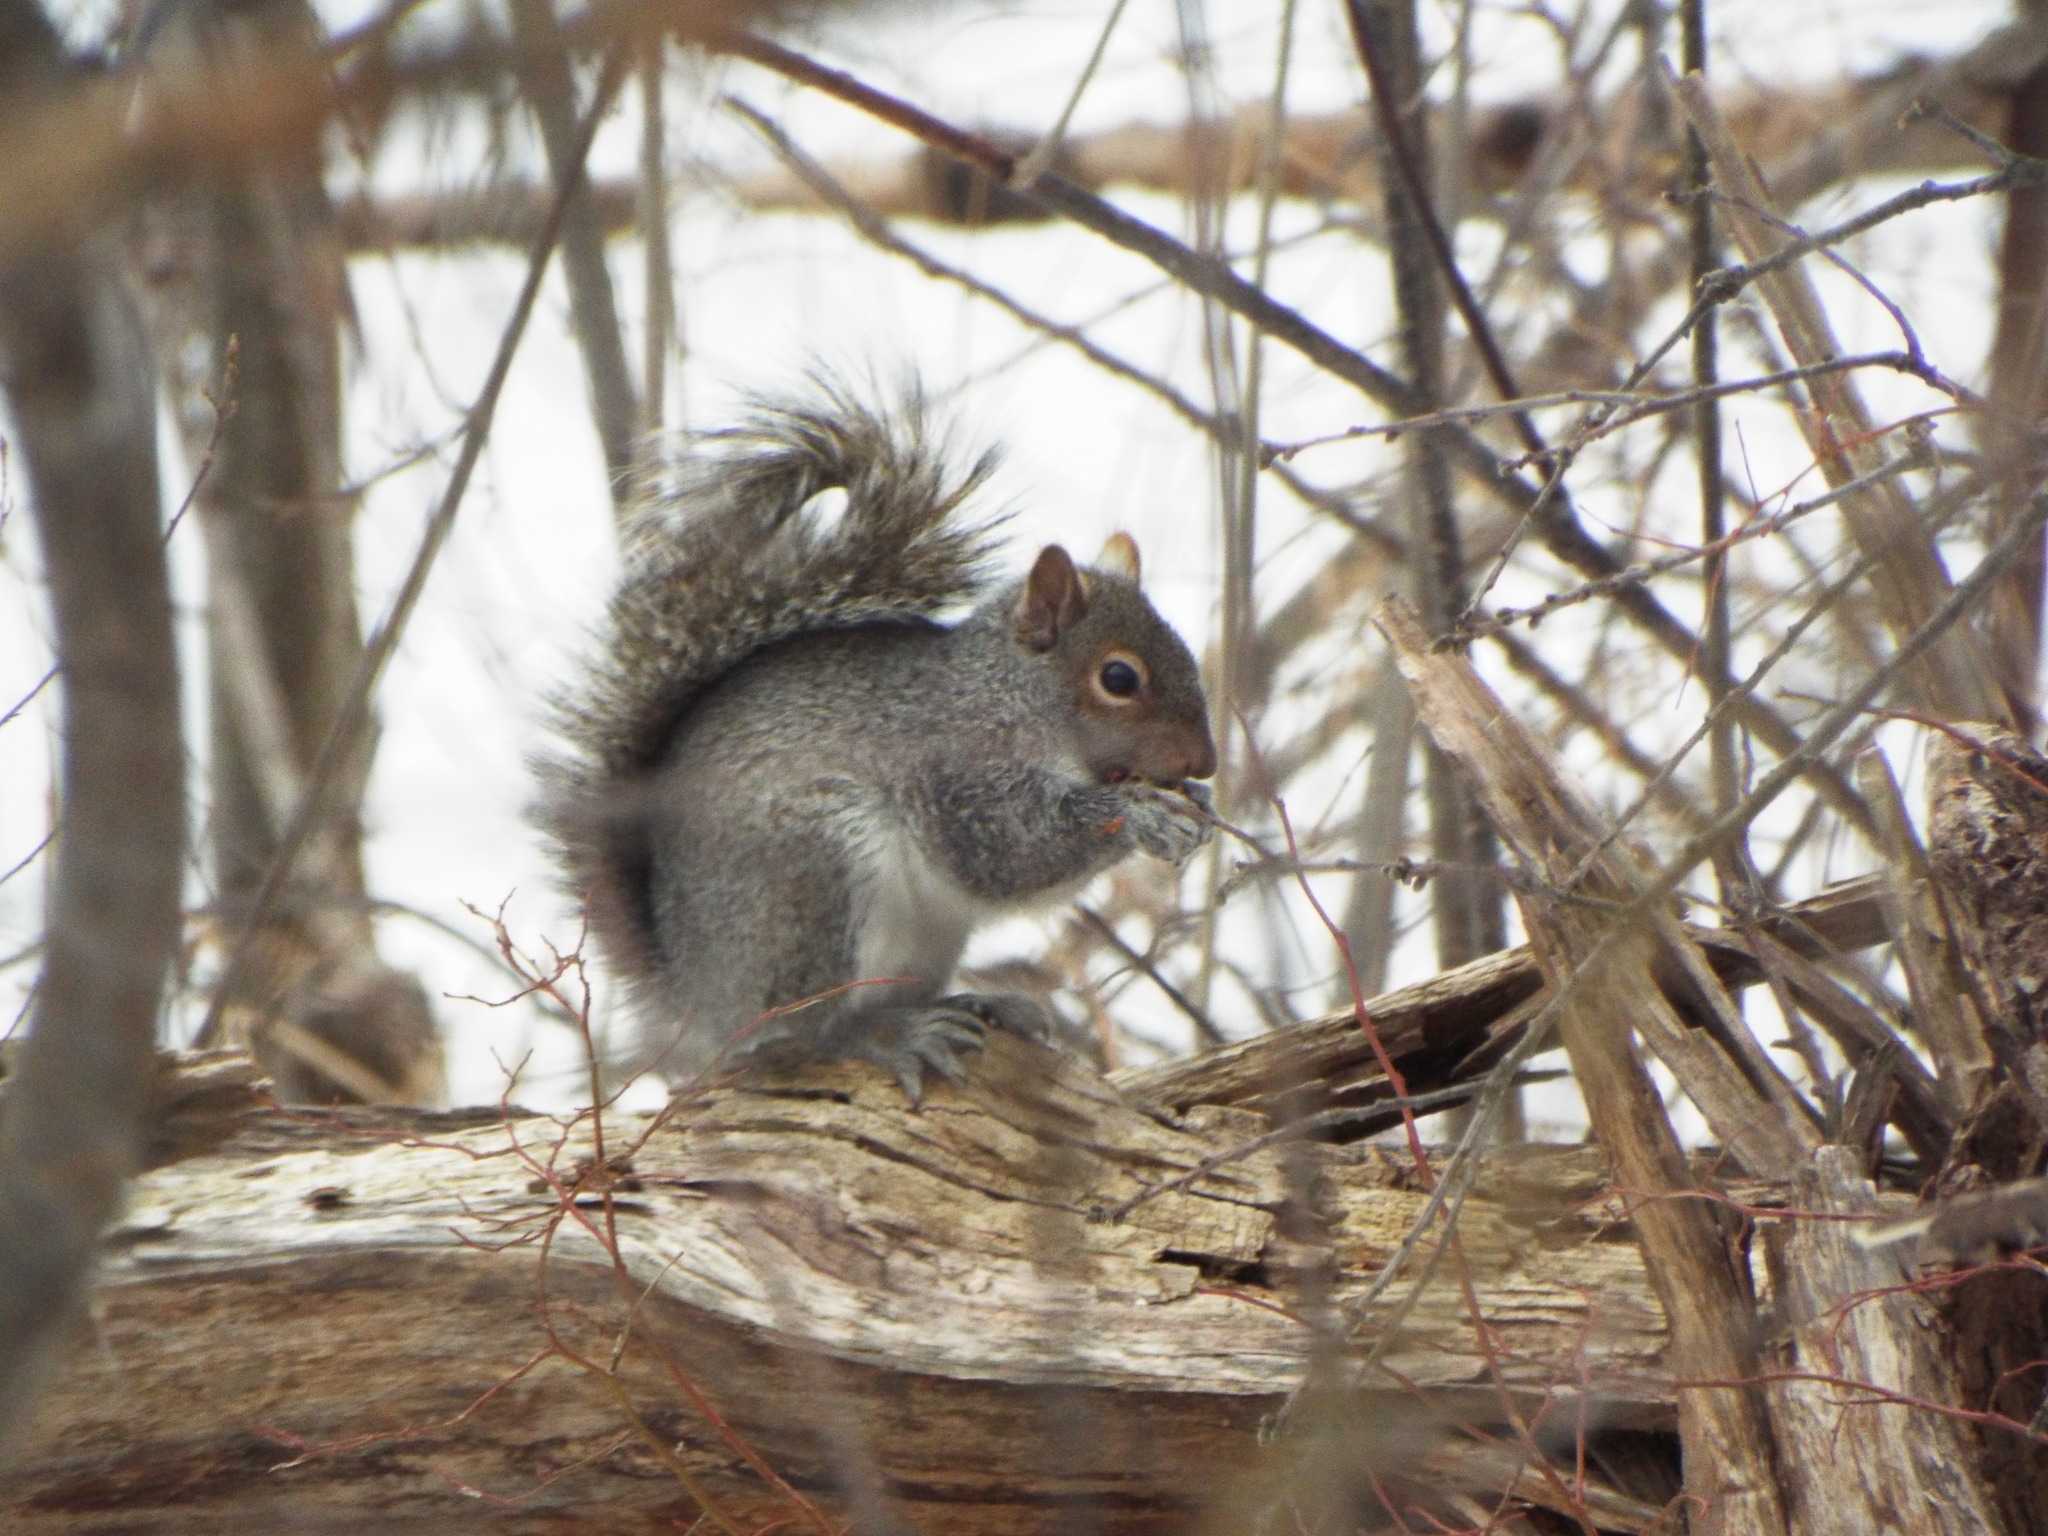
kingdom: Animalia
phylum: Chordata
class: Mammalia
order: Rodentia
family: Sciuridae
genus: Sciurus
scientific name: Sciurus carolinensis
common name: Eastern gray squirrel
